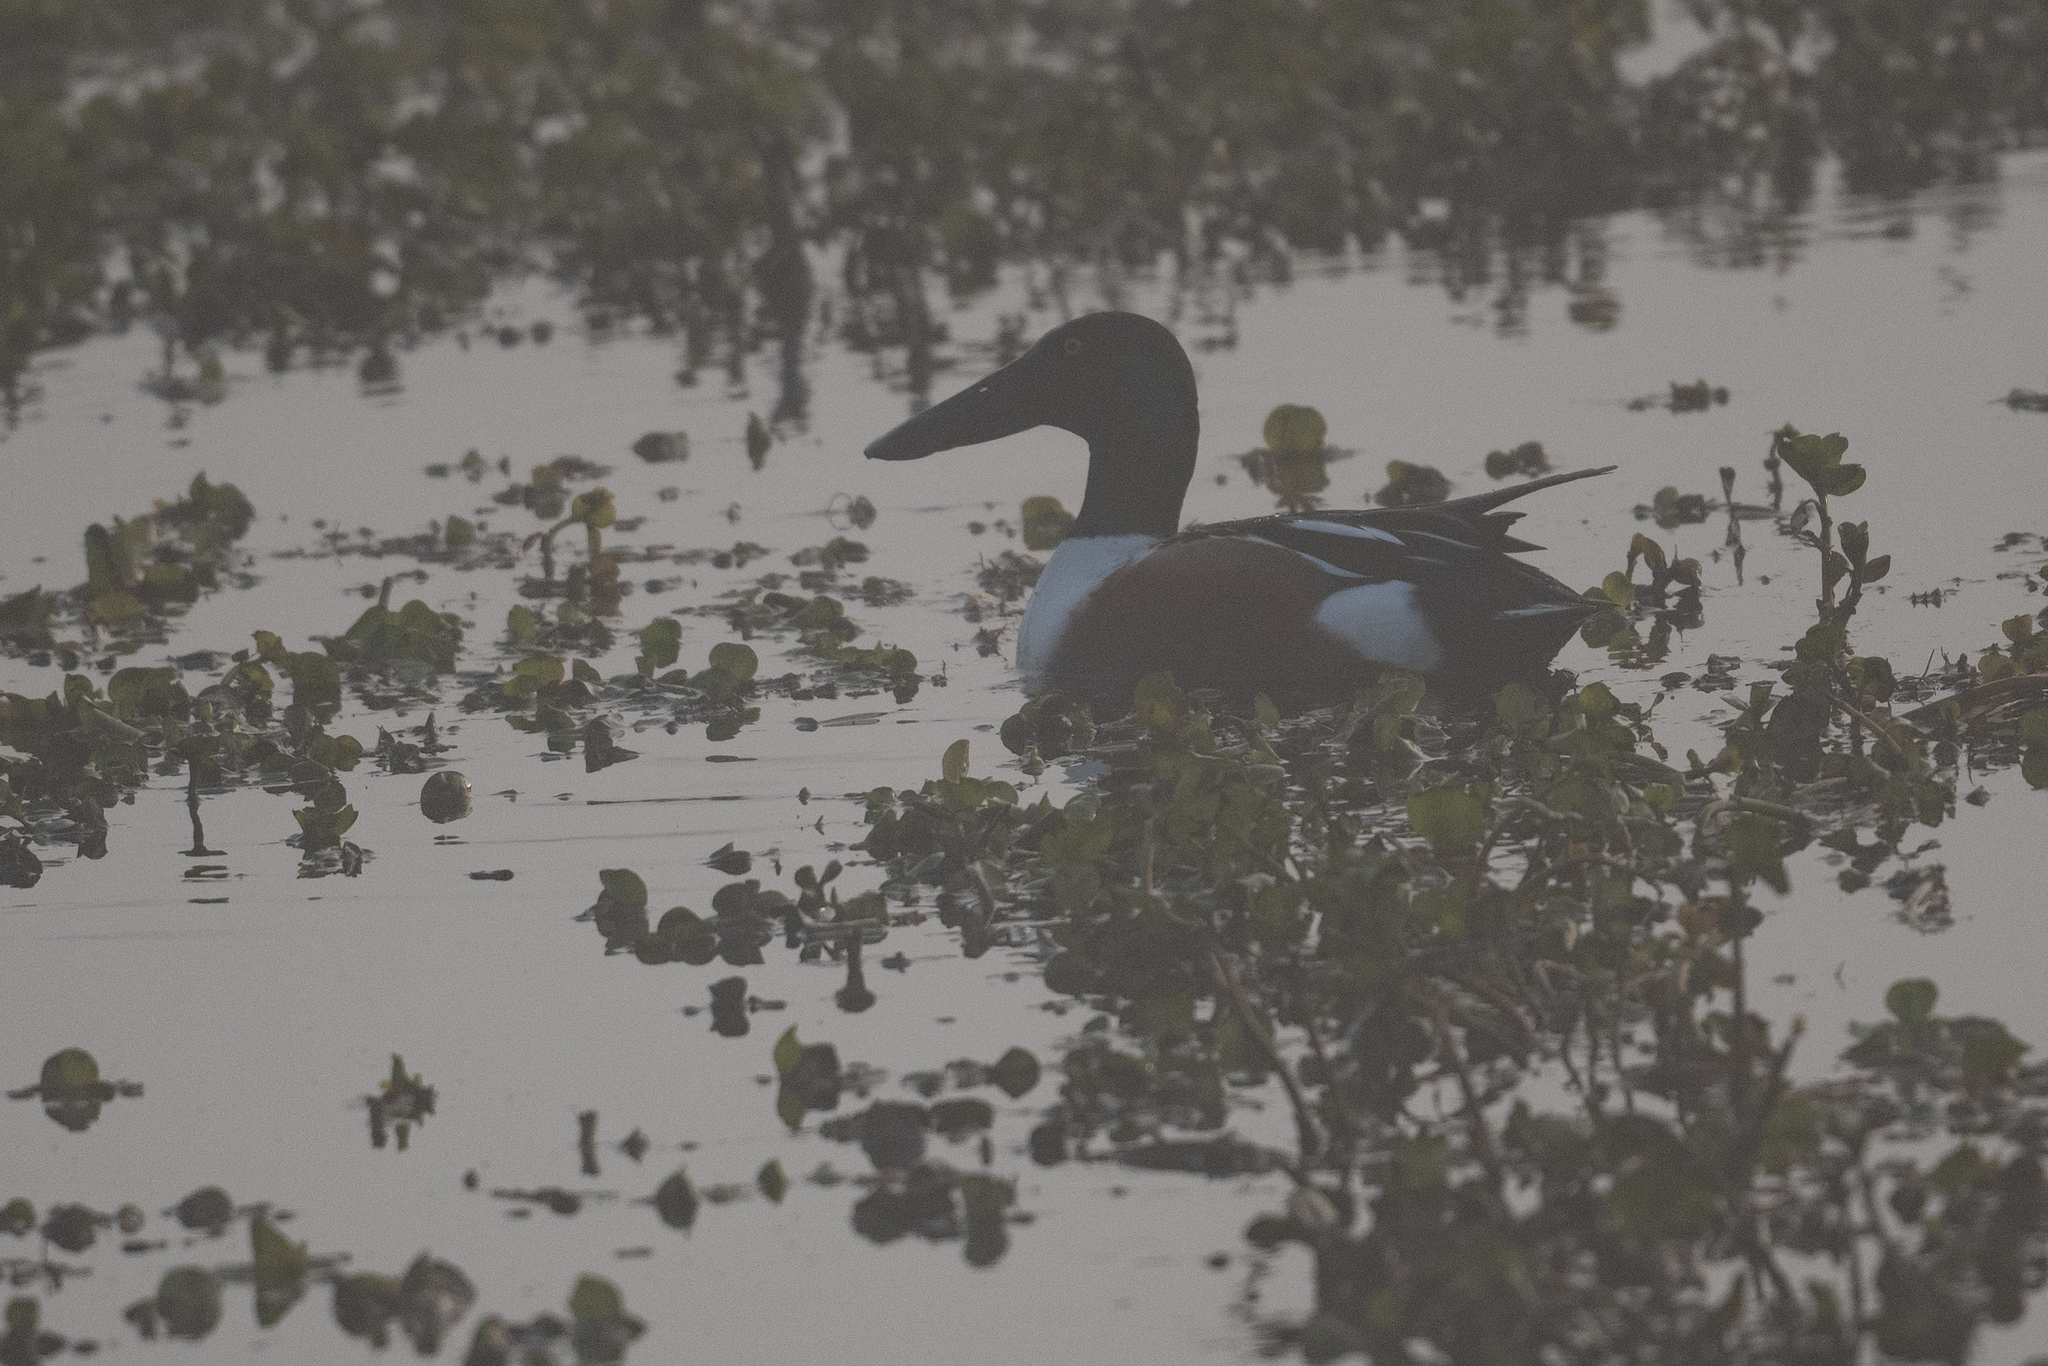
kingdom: Animalia
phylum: Chordata
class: Aves
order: Anseriformes
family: Anatidae
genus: Spatula
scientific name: Spatula clypeata
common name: Northern shoveler
